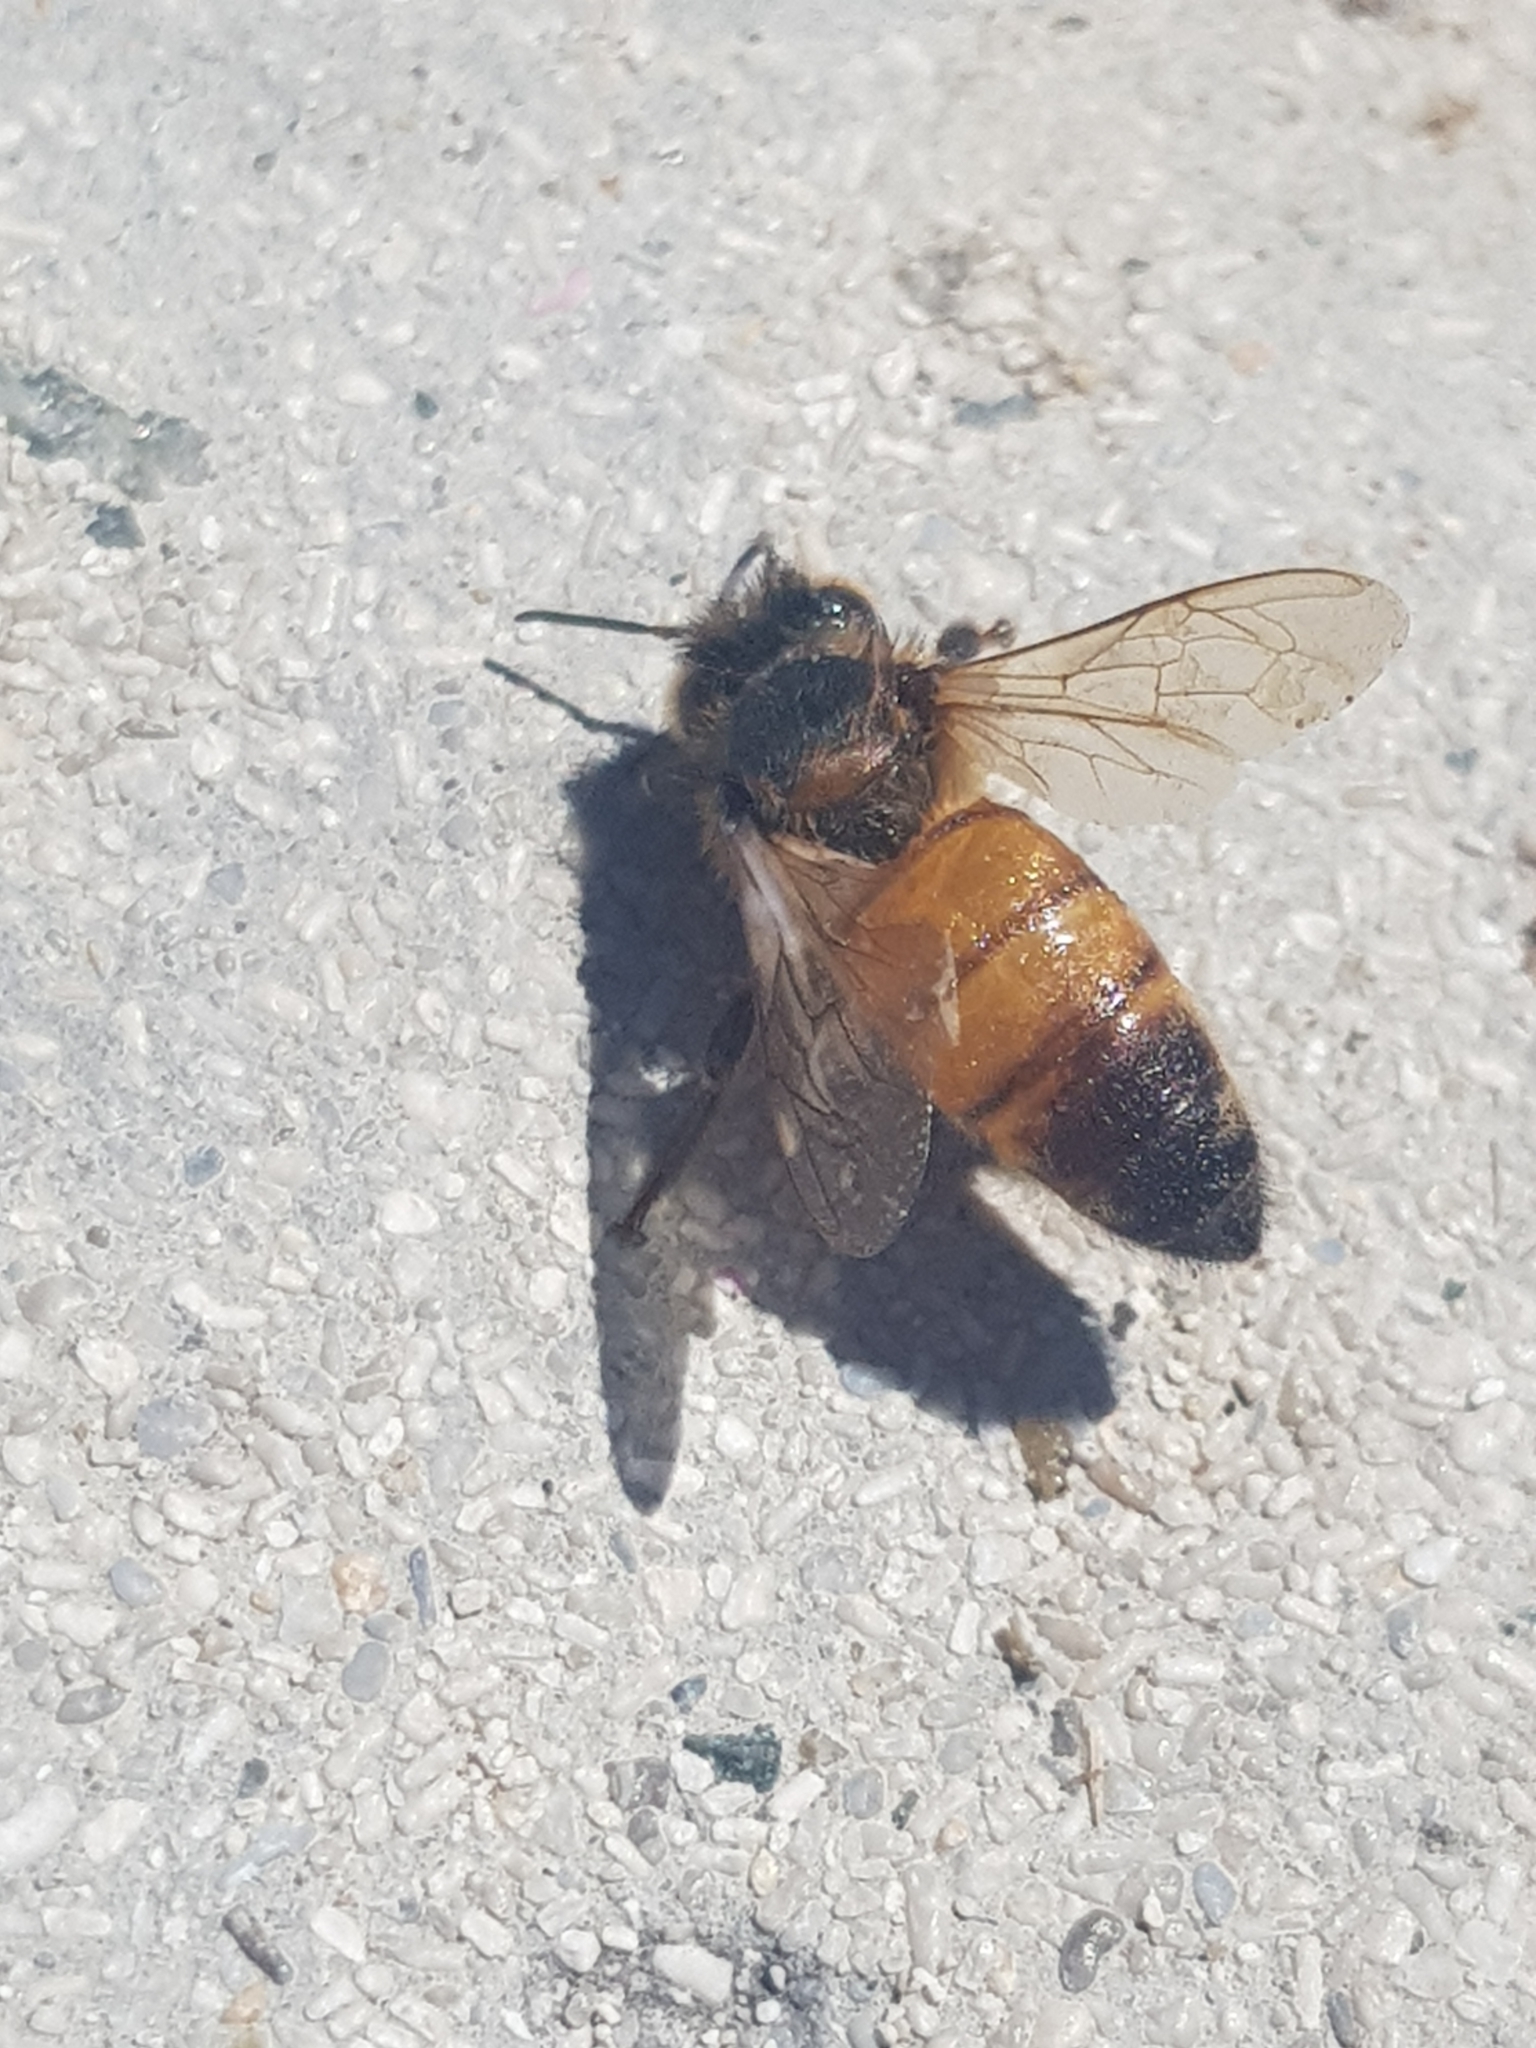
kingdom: Animalia
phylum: Arthropoda
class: Insecta
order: Hymenoptera
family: Apidae
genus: Apis
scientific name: Apis mellifera
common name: Honey bee
